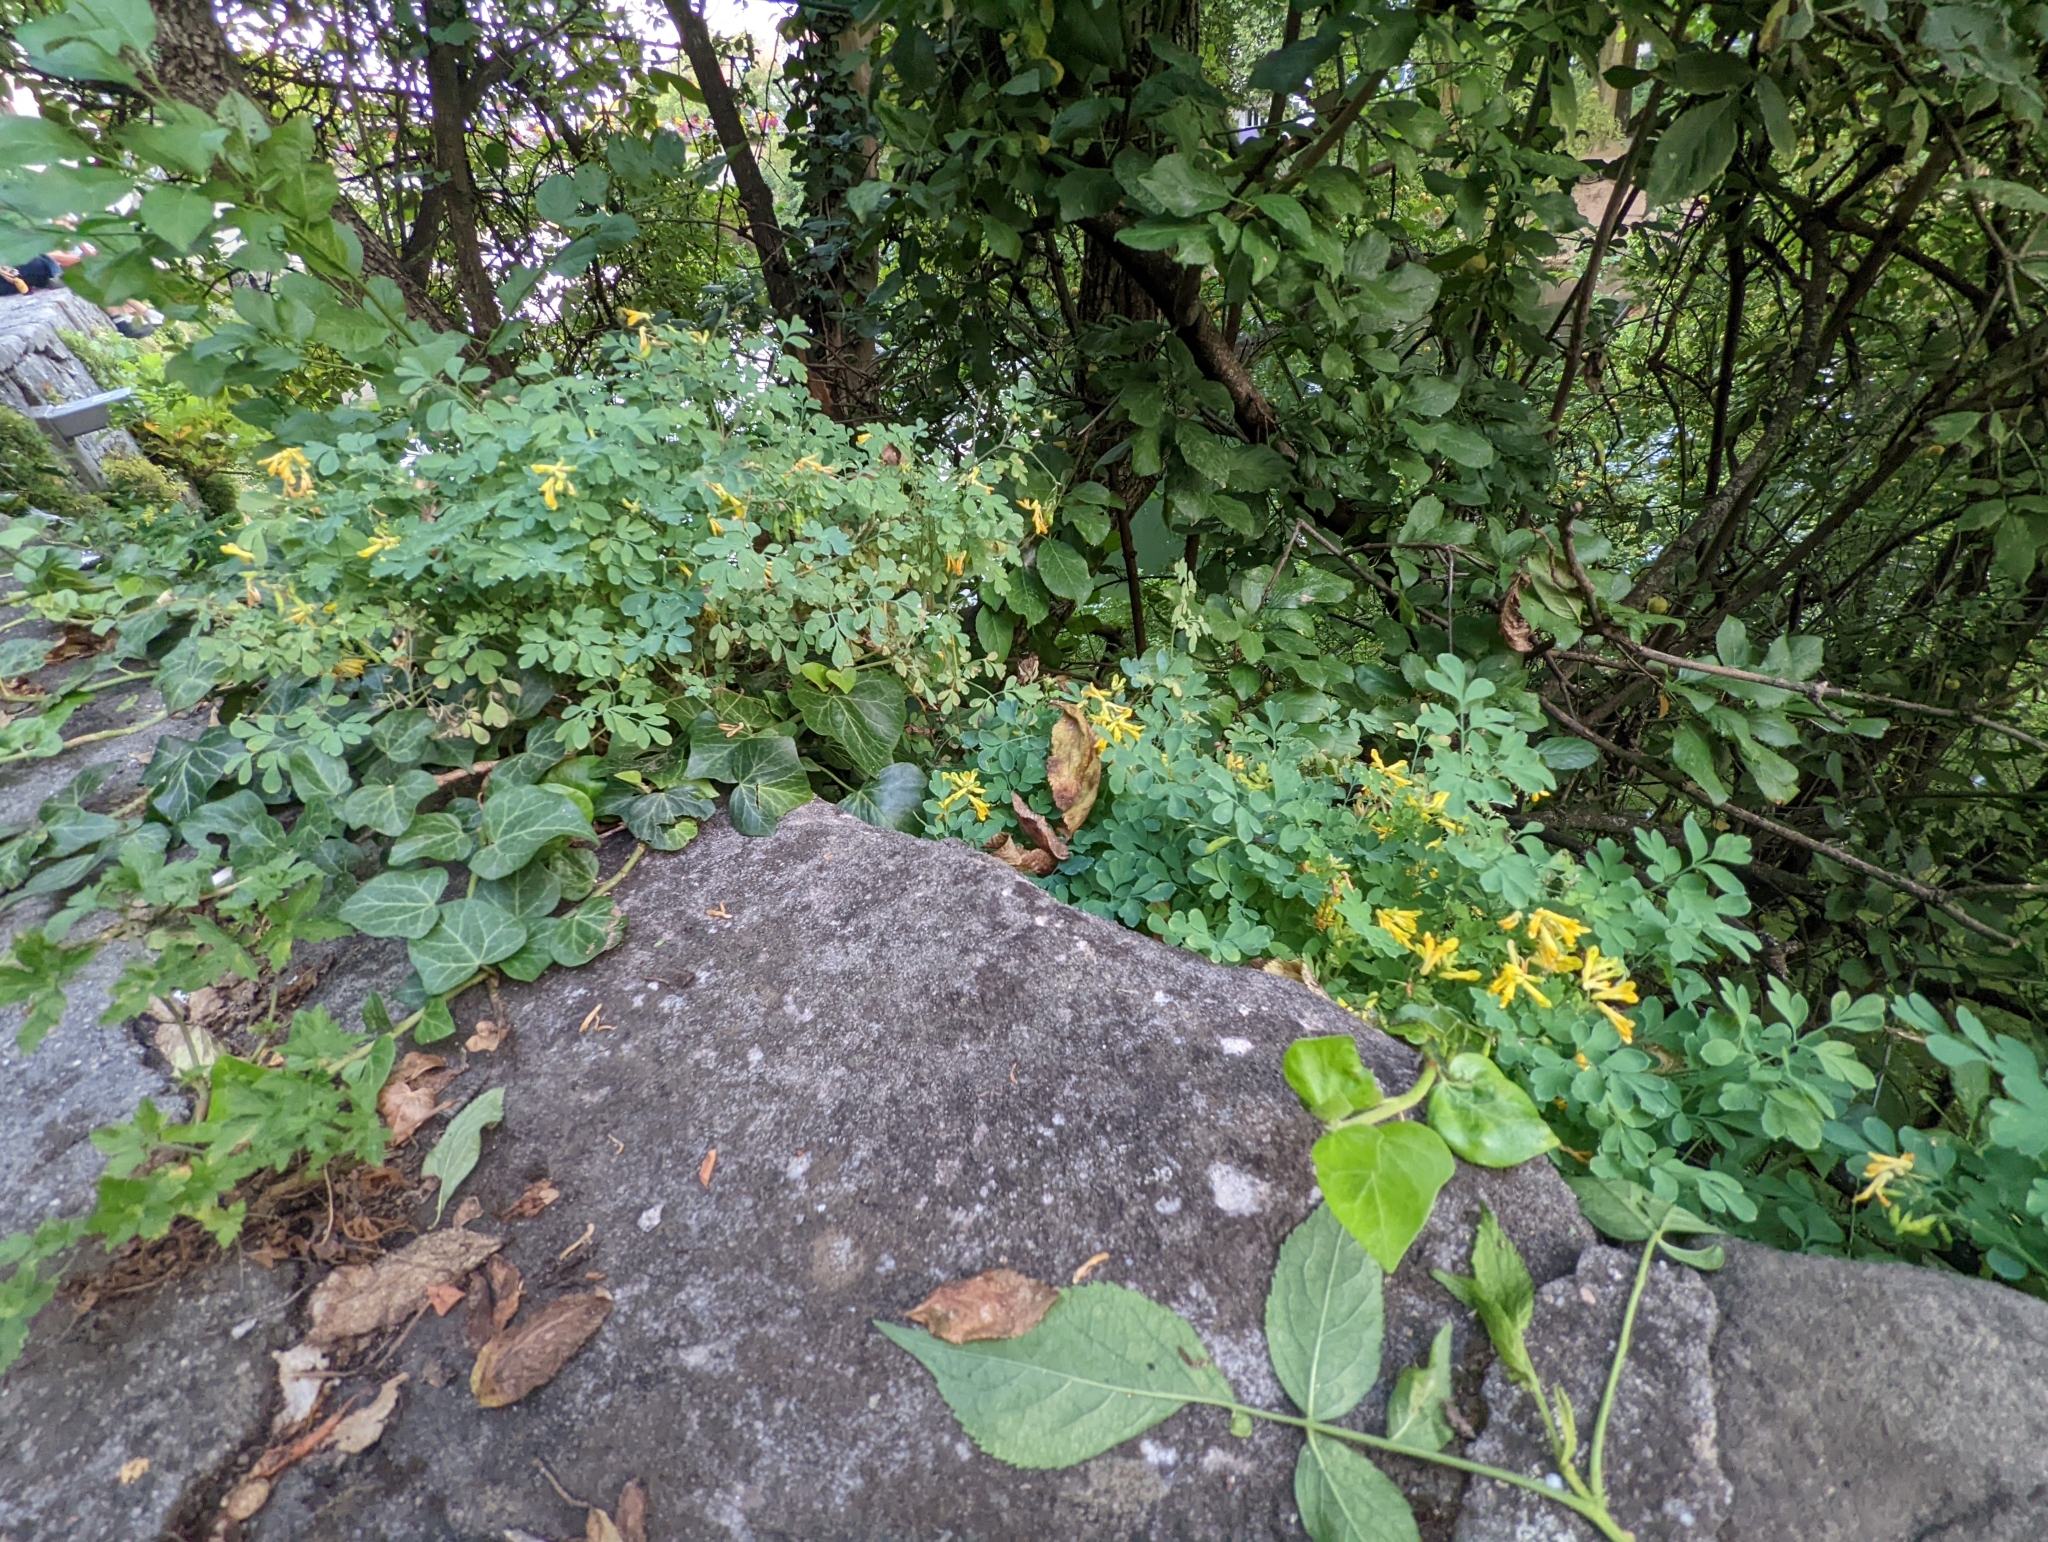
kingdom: Plantae
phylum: Tracheophyta
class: Magnoliopsida
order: Ranunculales
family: Papaveraceae
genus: Pseudofumaria
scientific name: Pseudofumaria lutea
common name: Yellow corydalis
